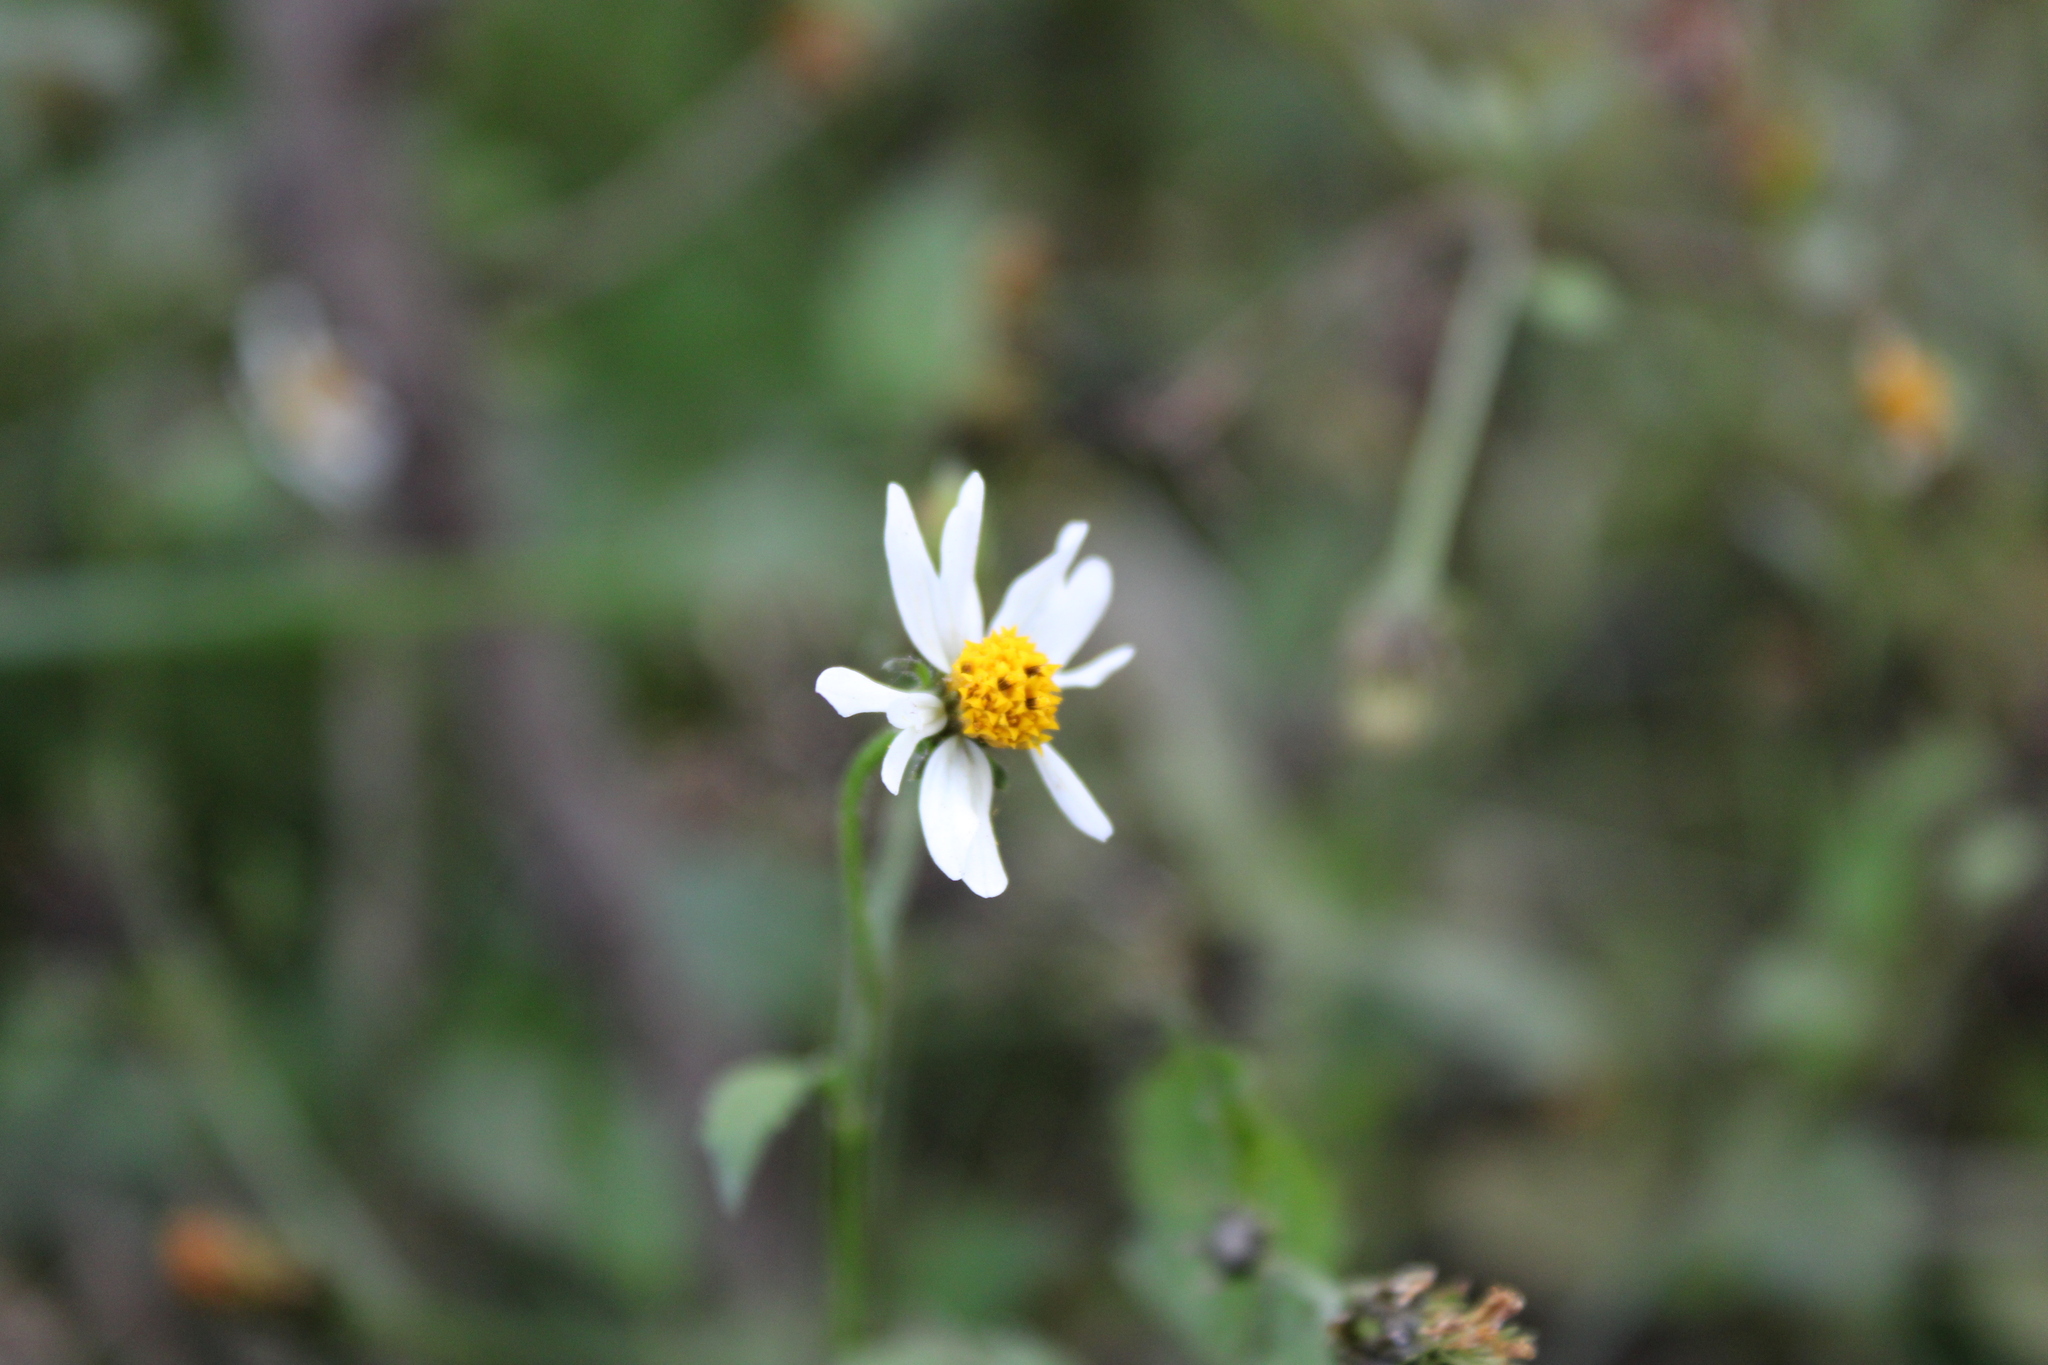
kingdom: Plantae
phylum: Tracheophyta
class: Magnoliopsida
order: Asterales
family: Asteraceae
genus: Bidens
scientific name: Bidens pilosa
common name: Black-jack
